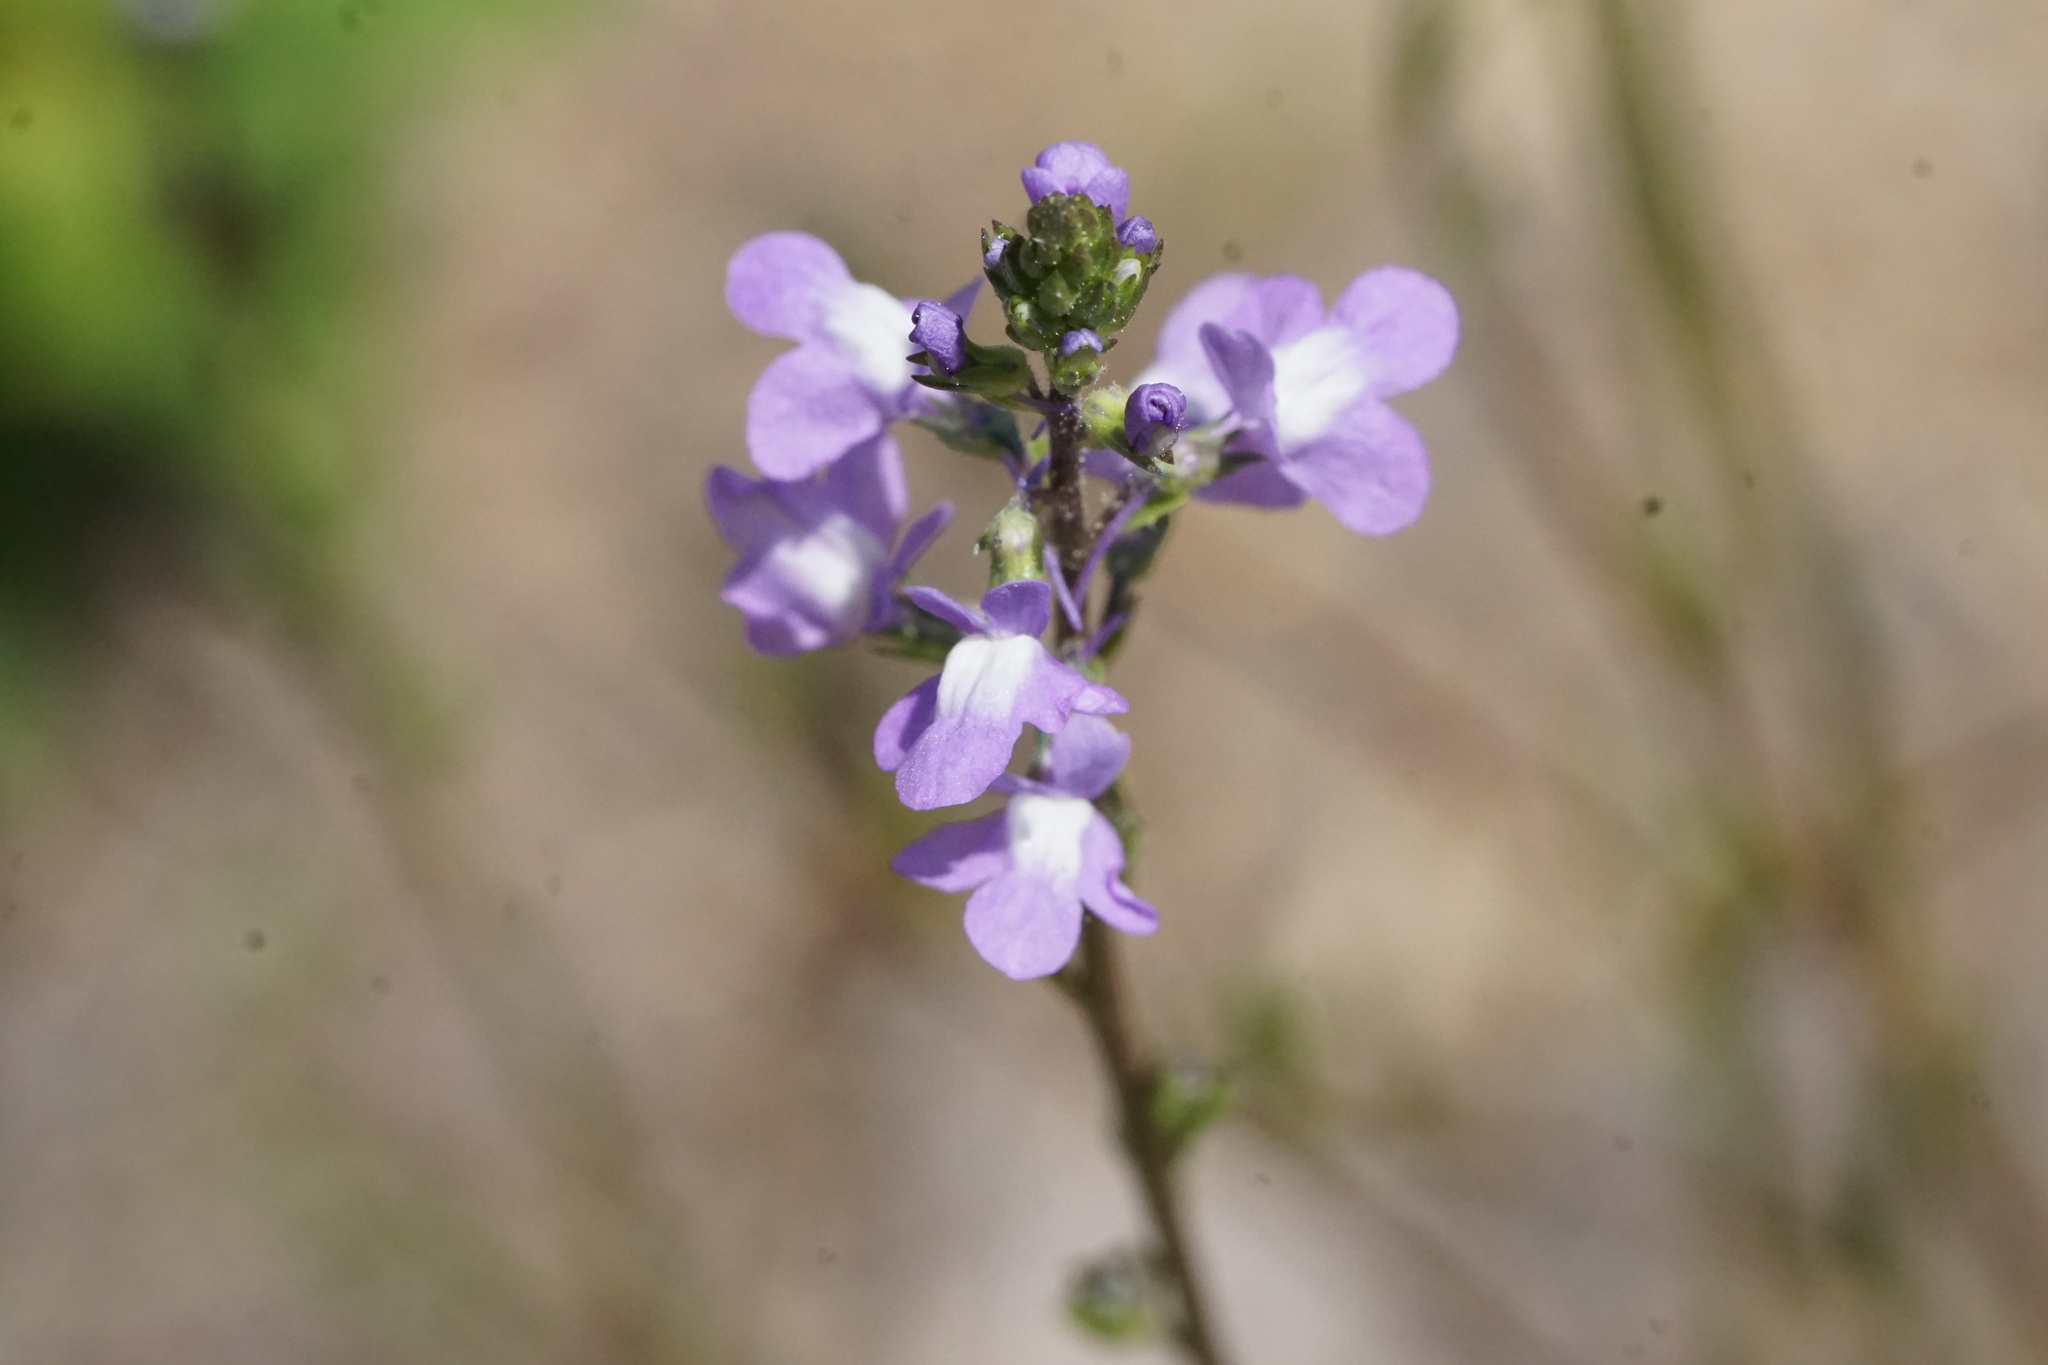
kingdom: Plantae
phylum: Tracheophyta
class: Magnoliopsida
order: Lamiales
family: Plantaginaceae
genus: Nuttallanthus
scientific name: Nuttallanthus canadensis
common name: Blue toadflax
